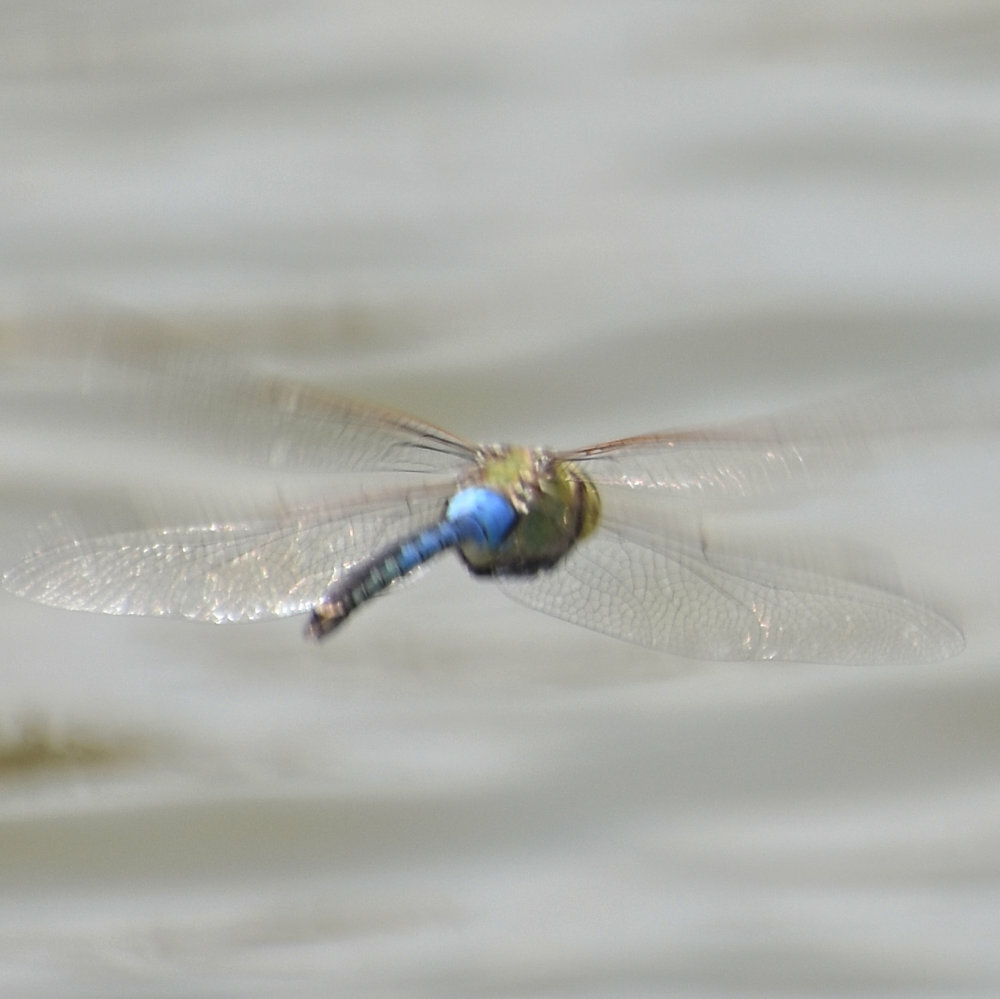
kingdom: Animalia
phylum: Arthropoda
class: Insecta
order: Odonata
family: Aeshnidae
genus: Anax
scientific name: Anax junius
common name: Common green darner
